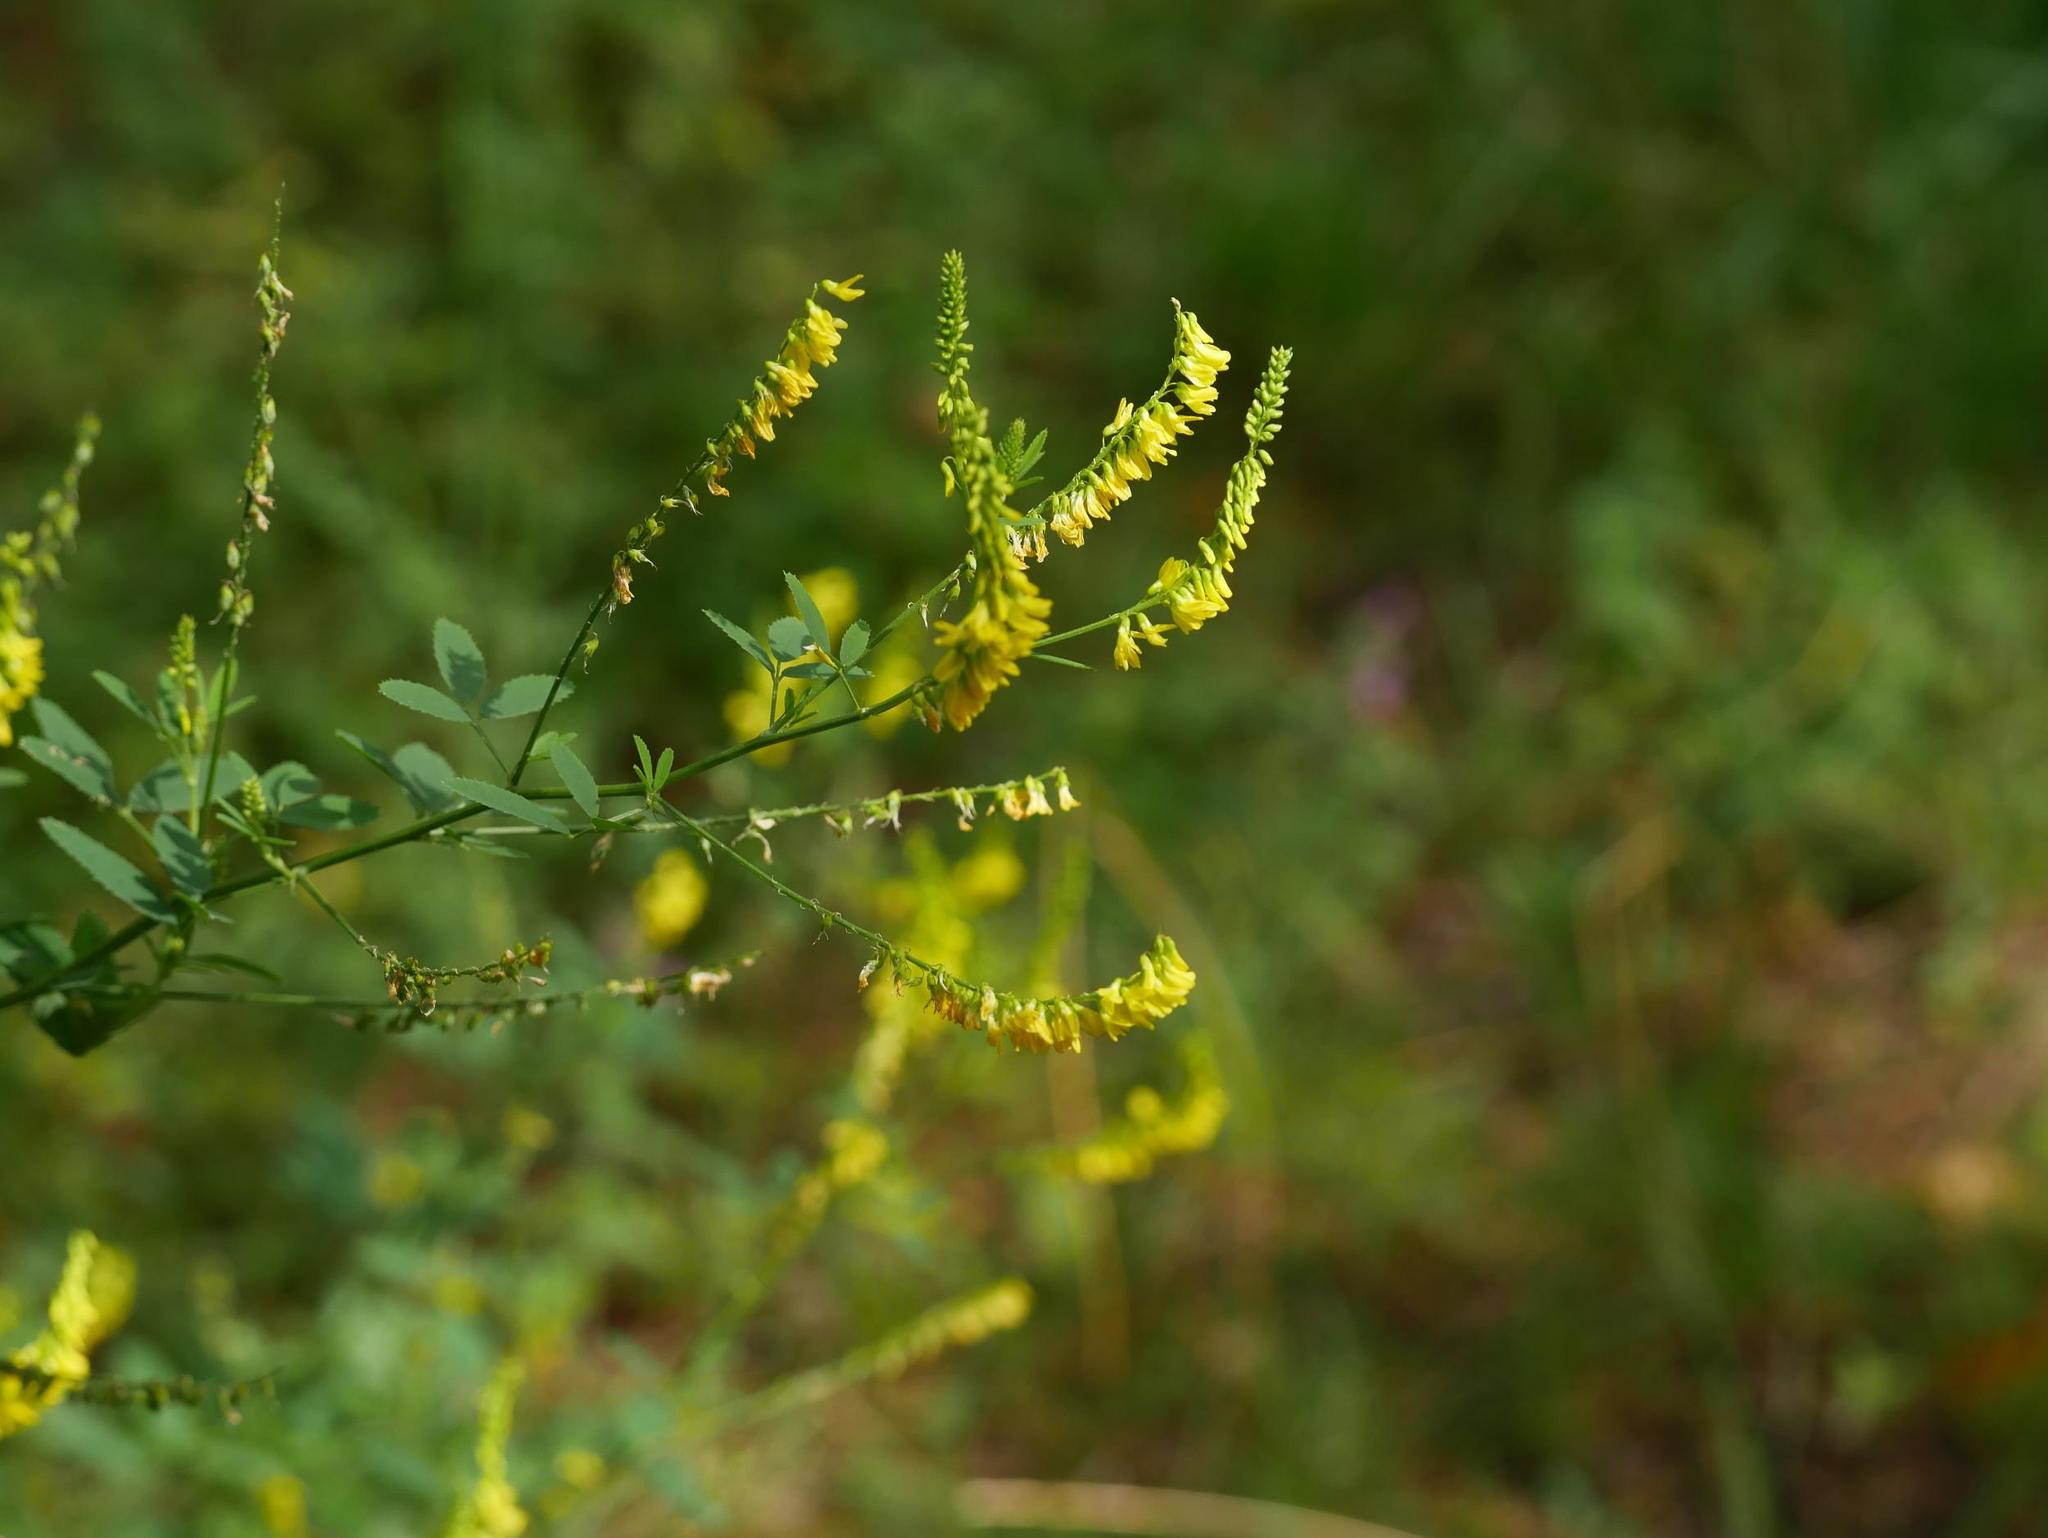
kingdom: Plantae
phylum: Tracheophyta
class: Magnoliopsida
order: Fabales
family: Fabaceae
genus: Melilotus
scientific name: Melilotus officinalis
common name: Sweetclover
